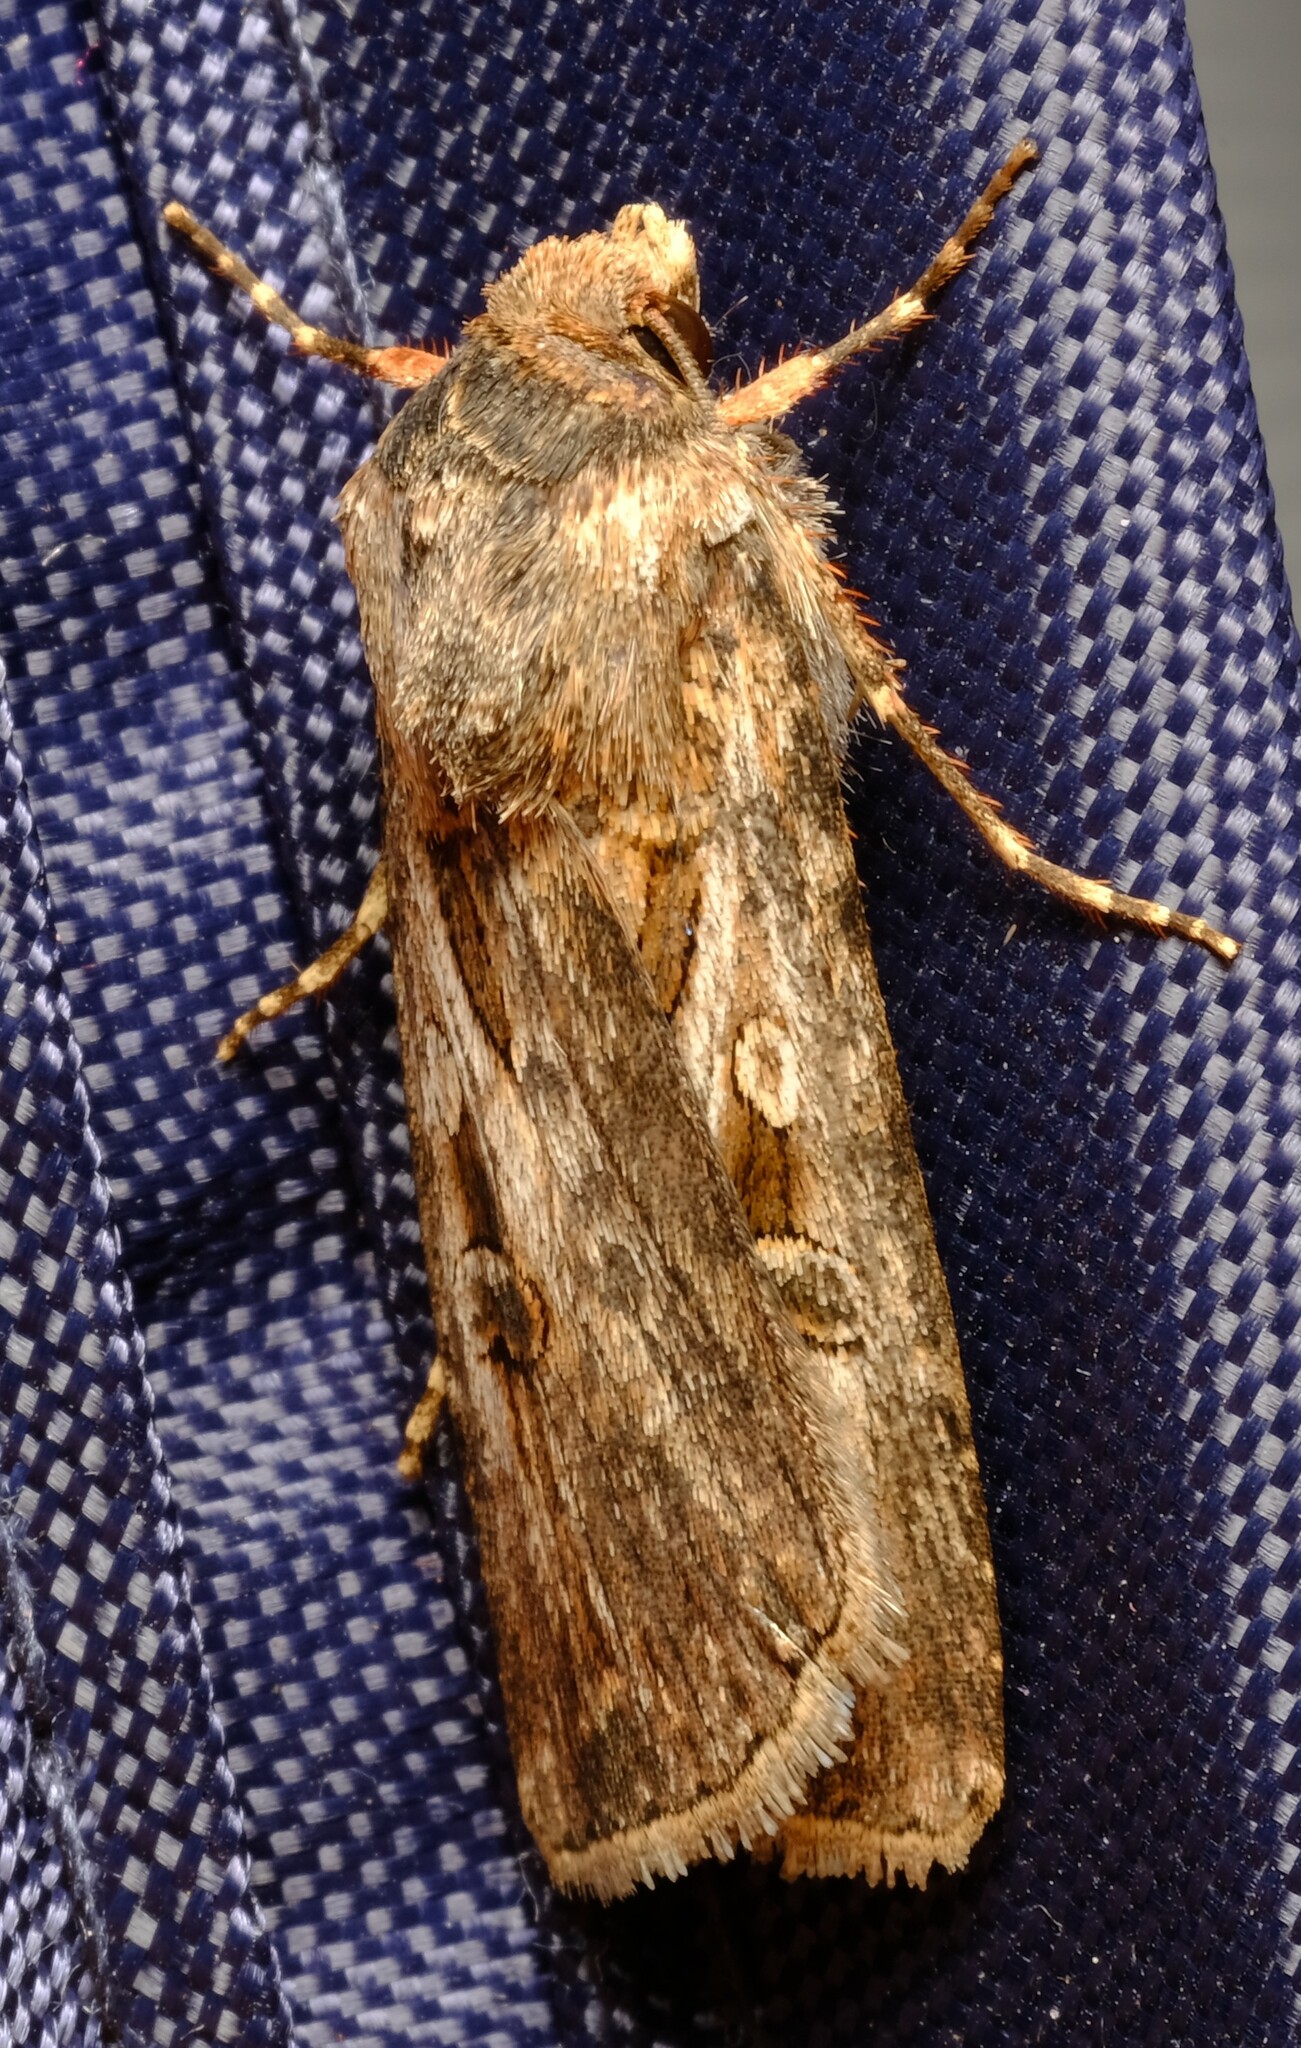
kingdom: Animalia
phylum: Arthropoda
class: Insecta
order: Lepidoptera
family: Noctuidae
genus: Agrotis
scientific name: Agrotis munda
